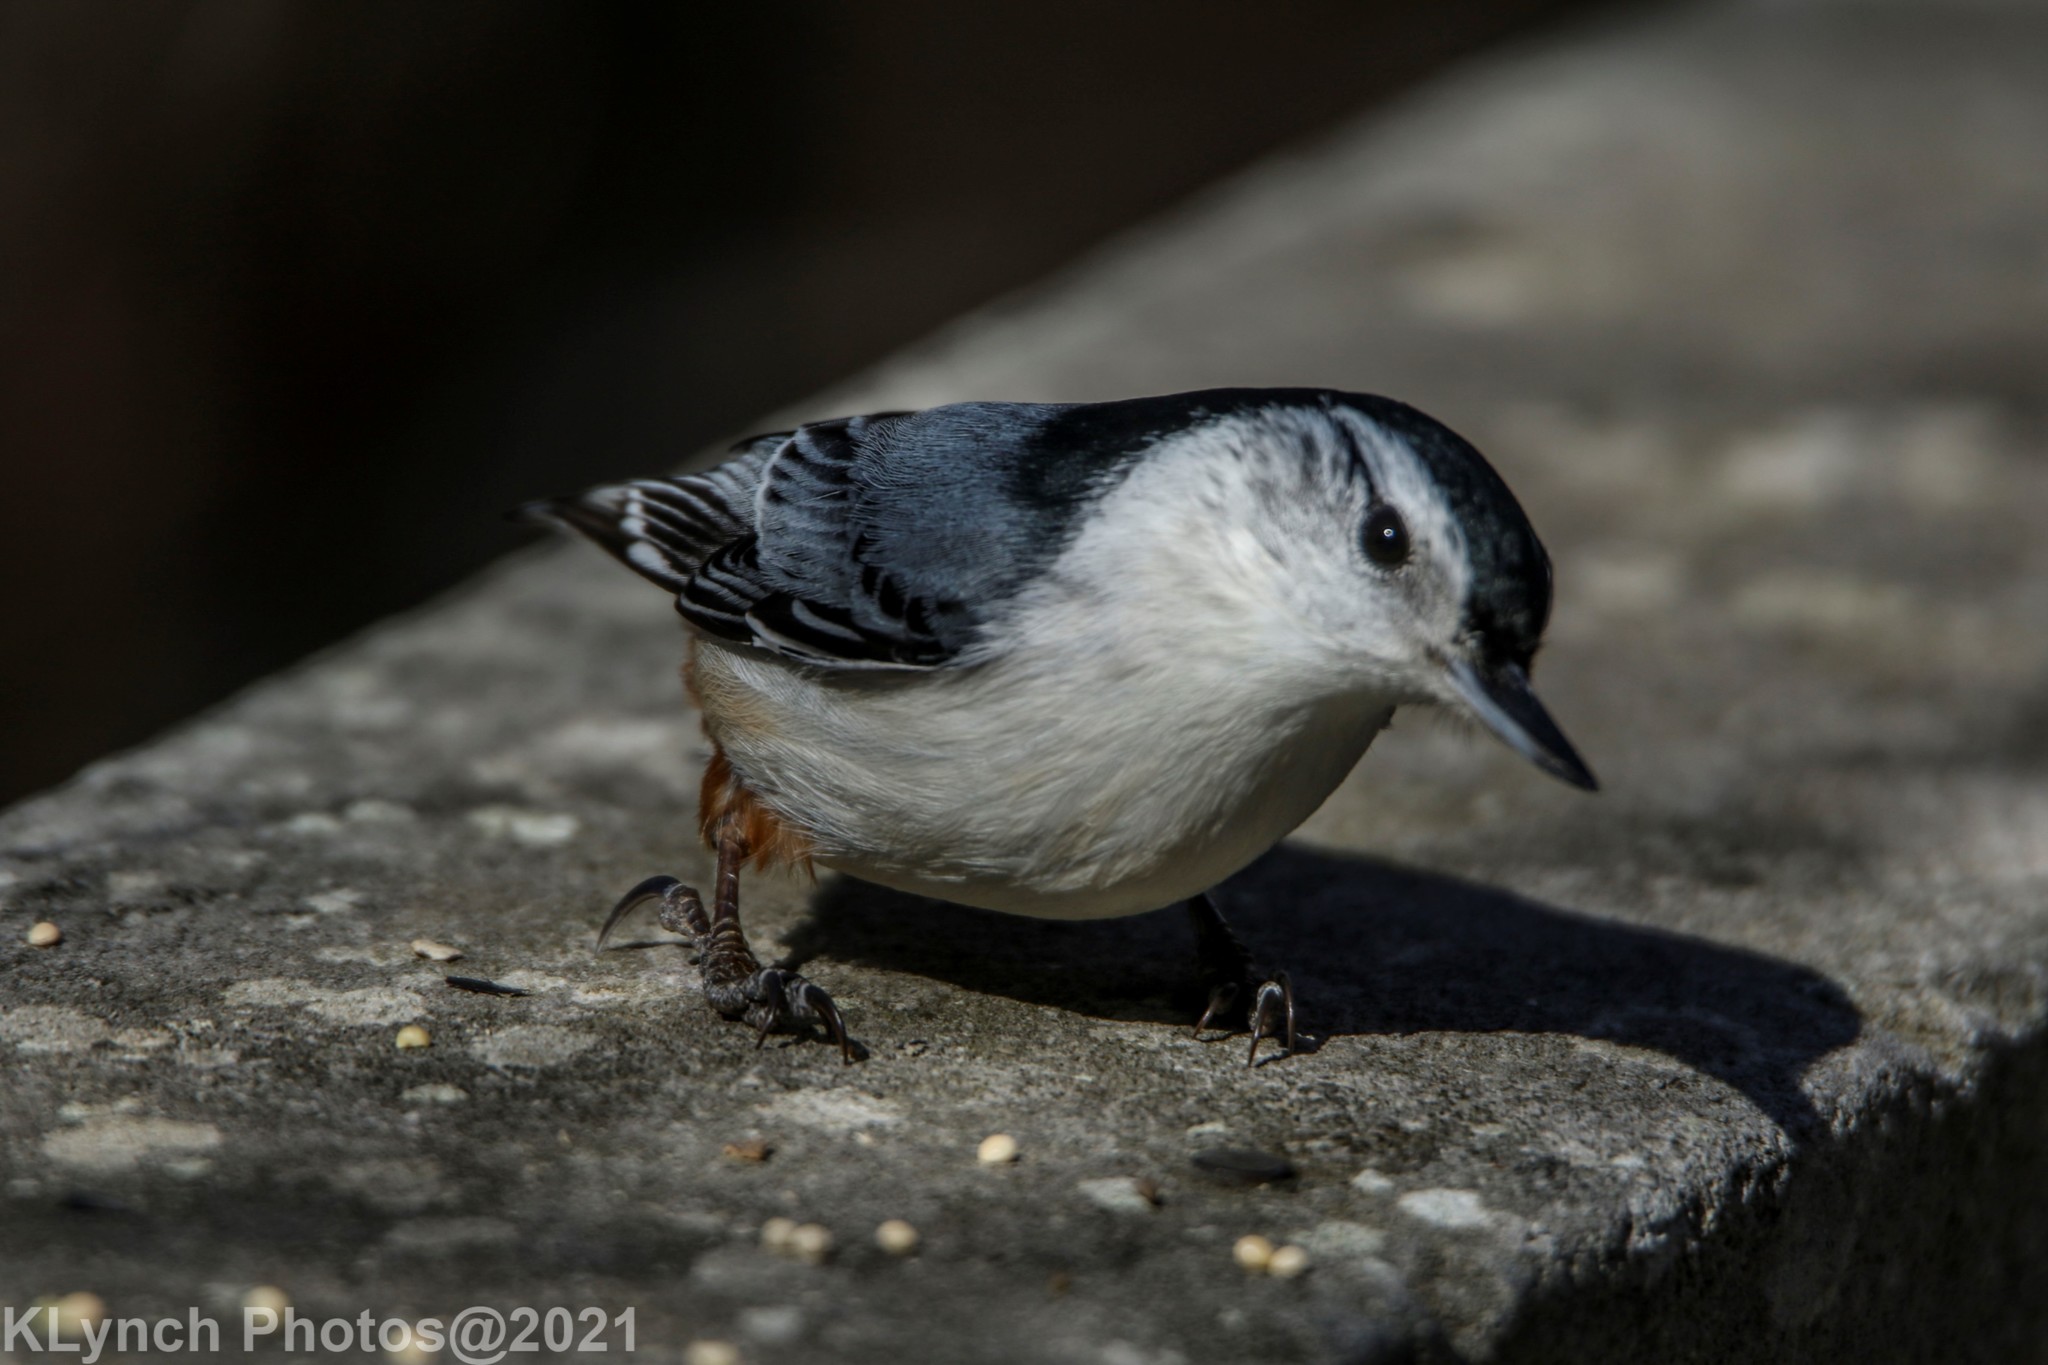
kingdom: Animalia
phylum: Chordata
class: Aves
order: Passeriformes
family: Sittidae
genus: Sitta
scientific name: Sitta carolinensis
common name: White-breasted nuthatch
